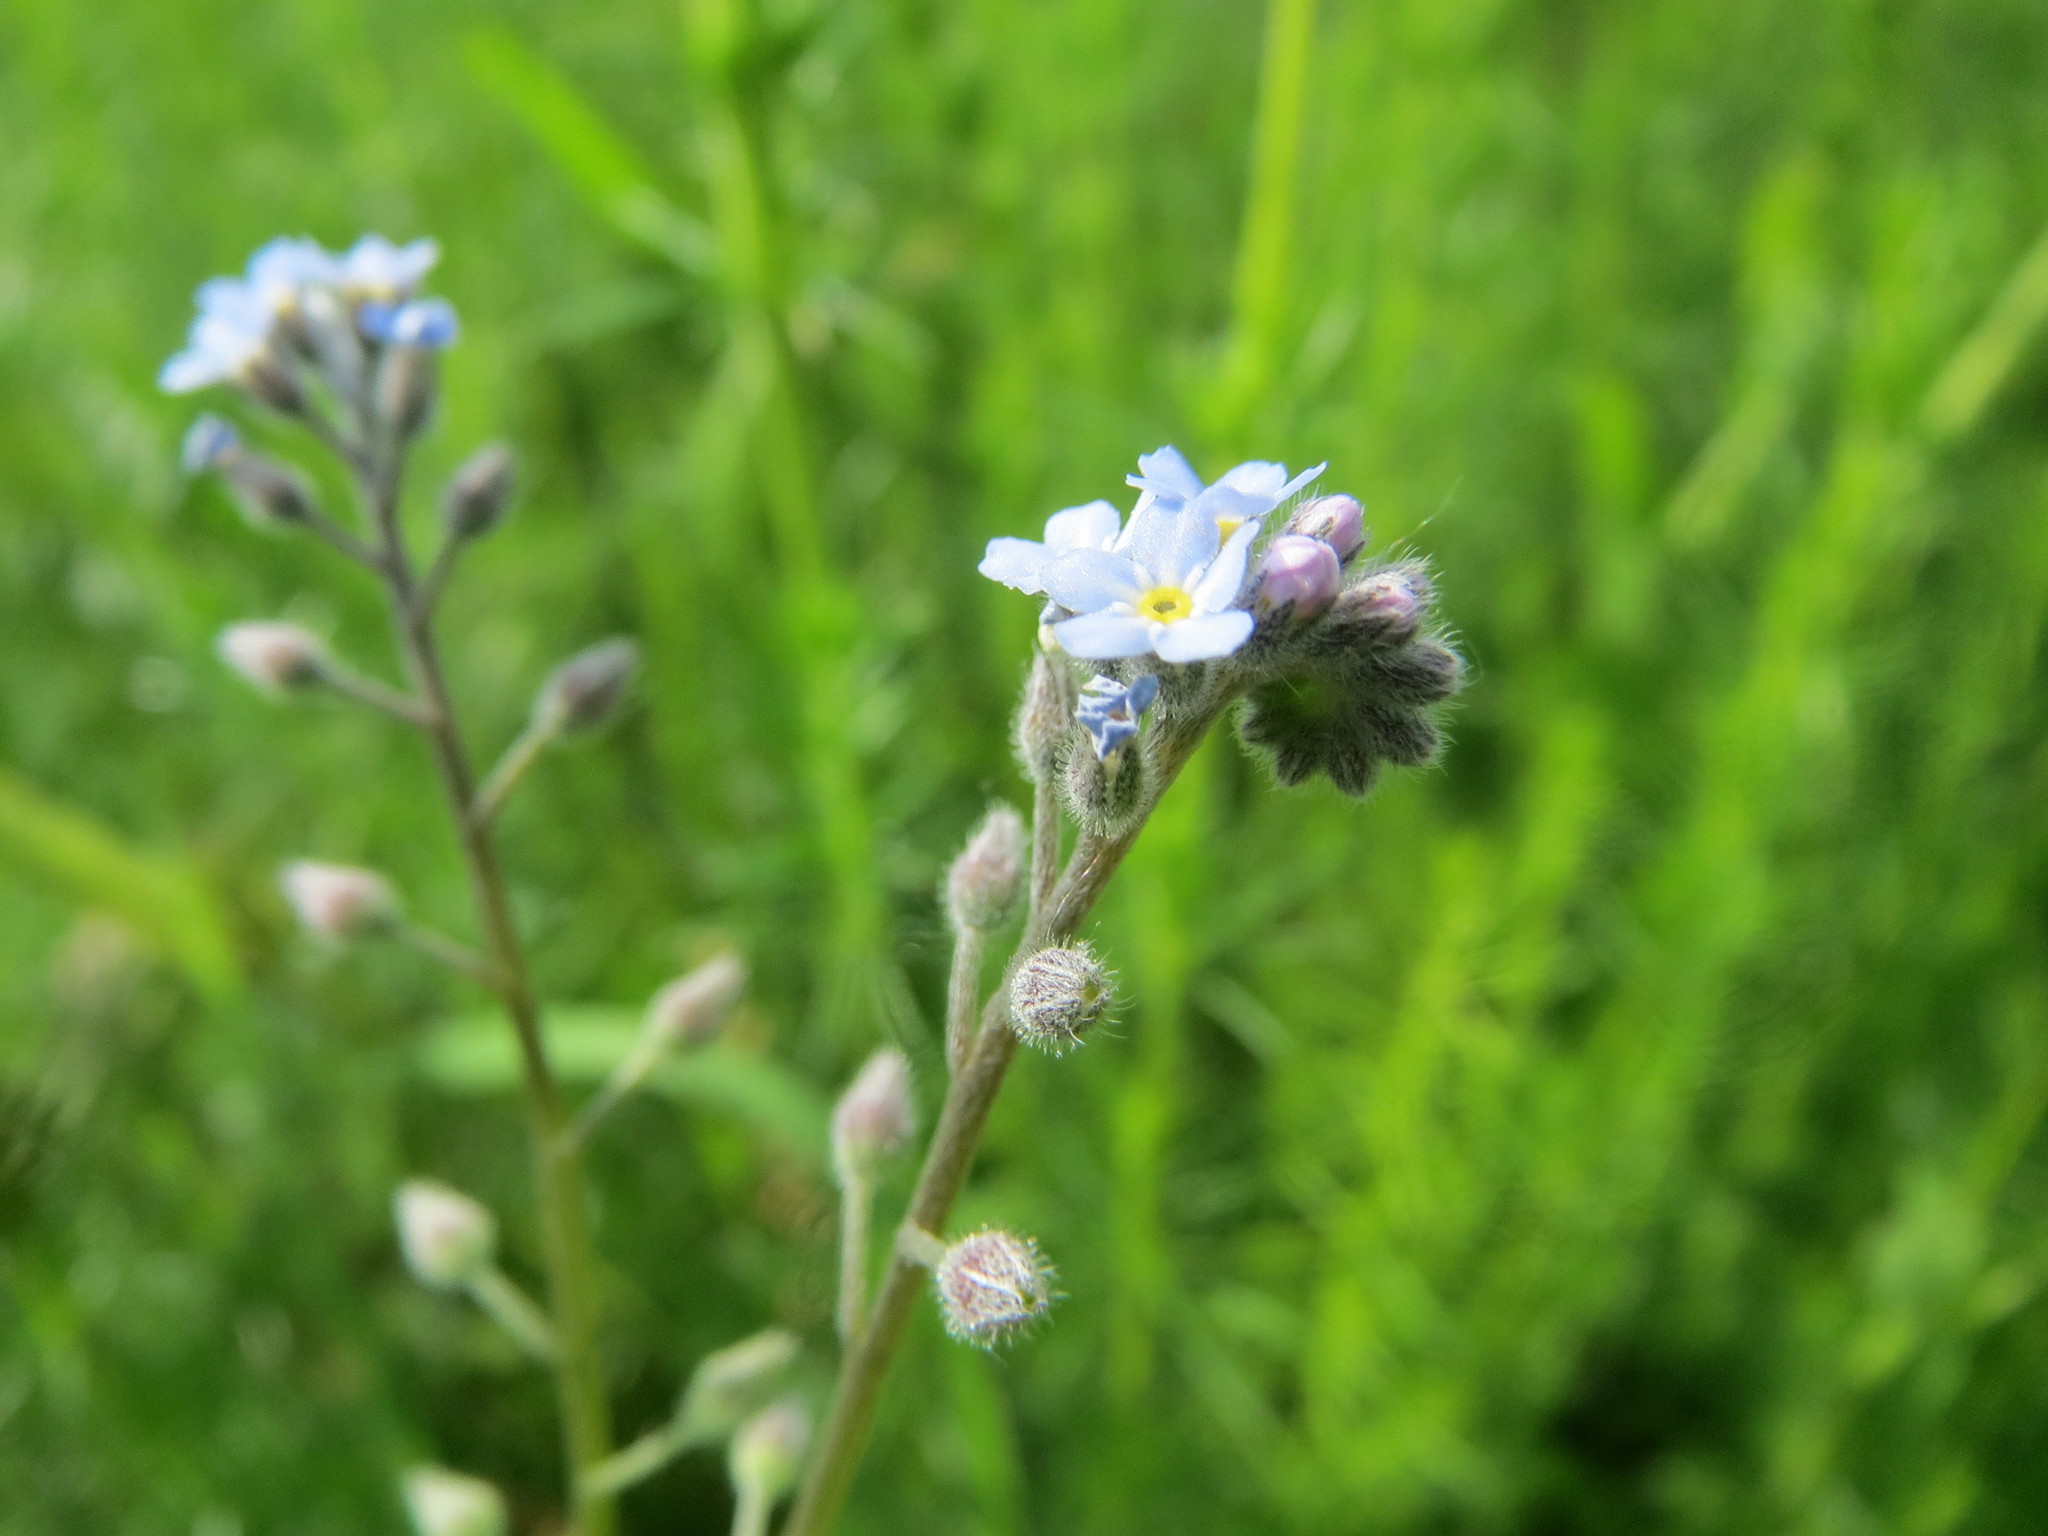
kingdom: Plantae
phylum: Tracheophyta
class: Magnoliopsida
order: Boraginales
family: Boraginaceae
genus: Myosotis
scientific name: Myosotis arvensis
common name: Field forget-me-not
